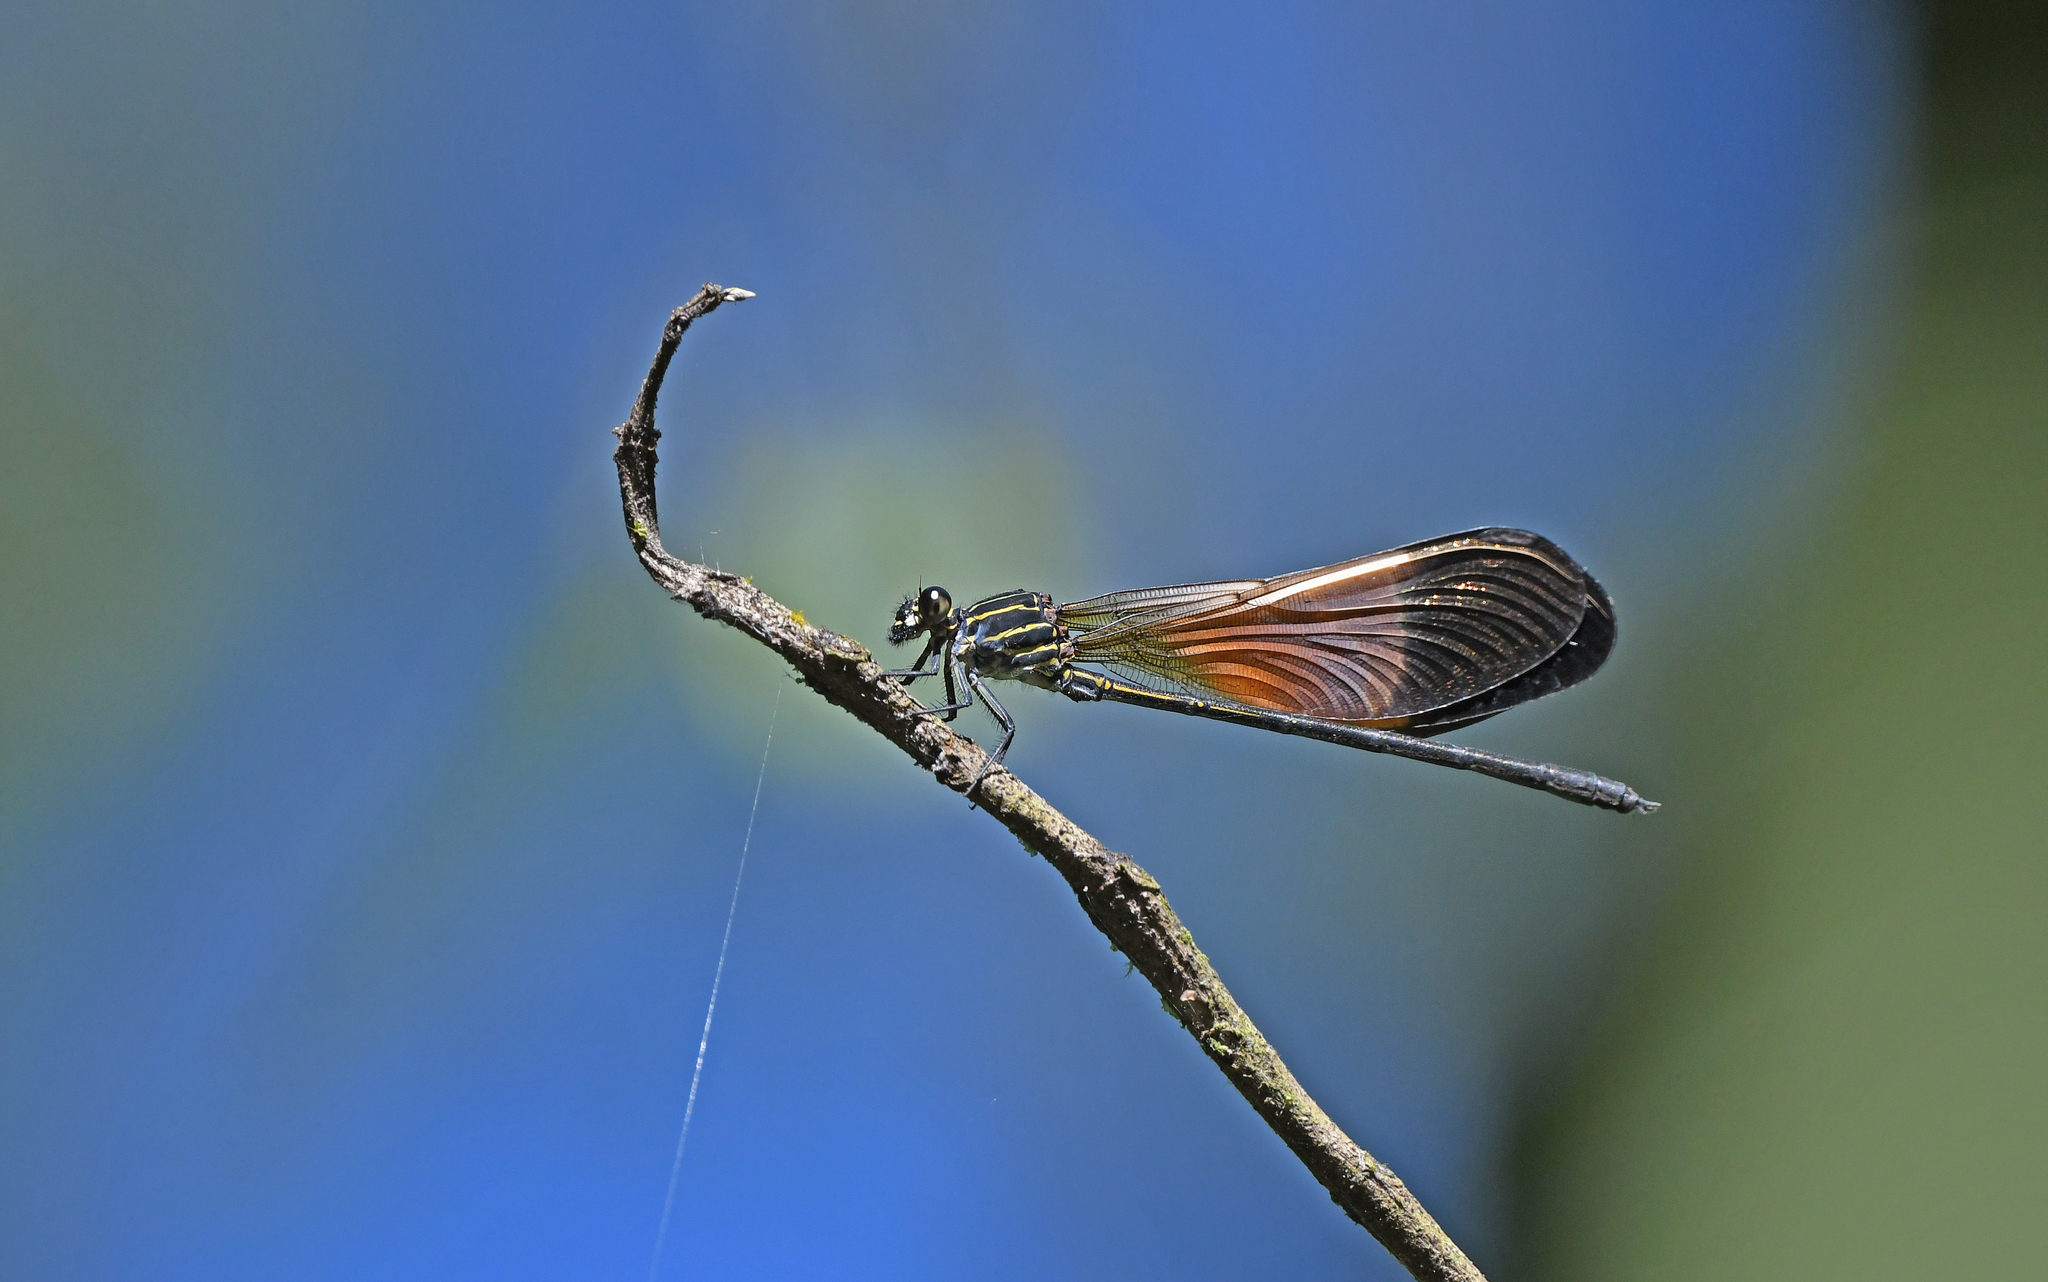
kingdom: Animalia
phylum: Arthropoda
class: Insecta
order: Odonata
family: Polythoridae
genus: Polythore
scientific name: Polythore boliviana
